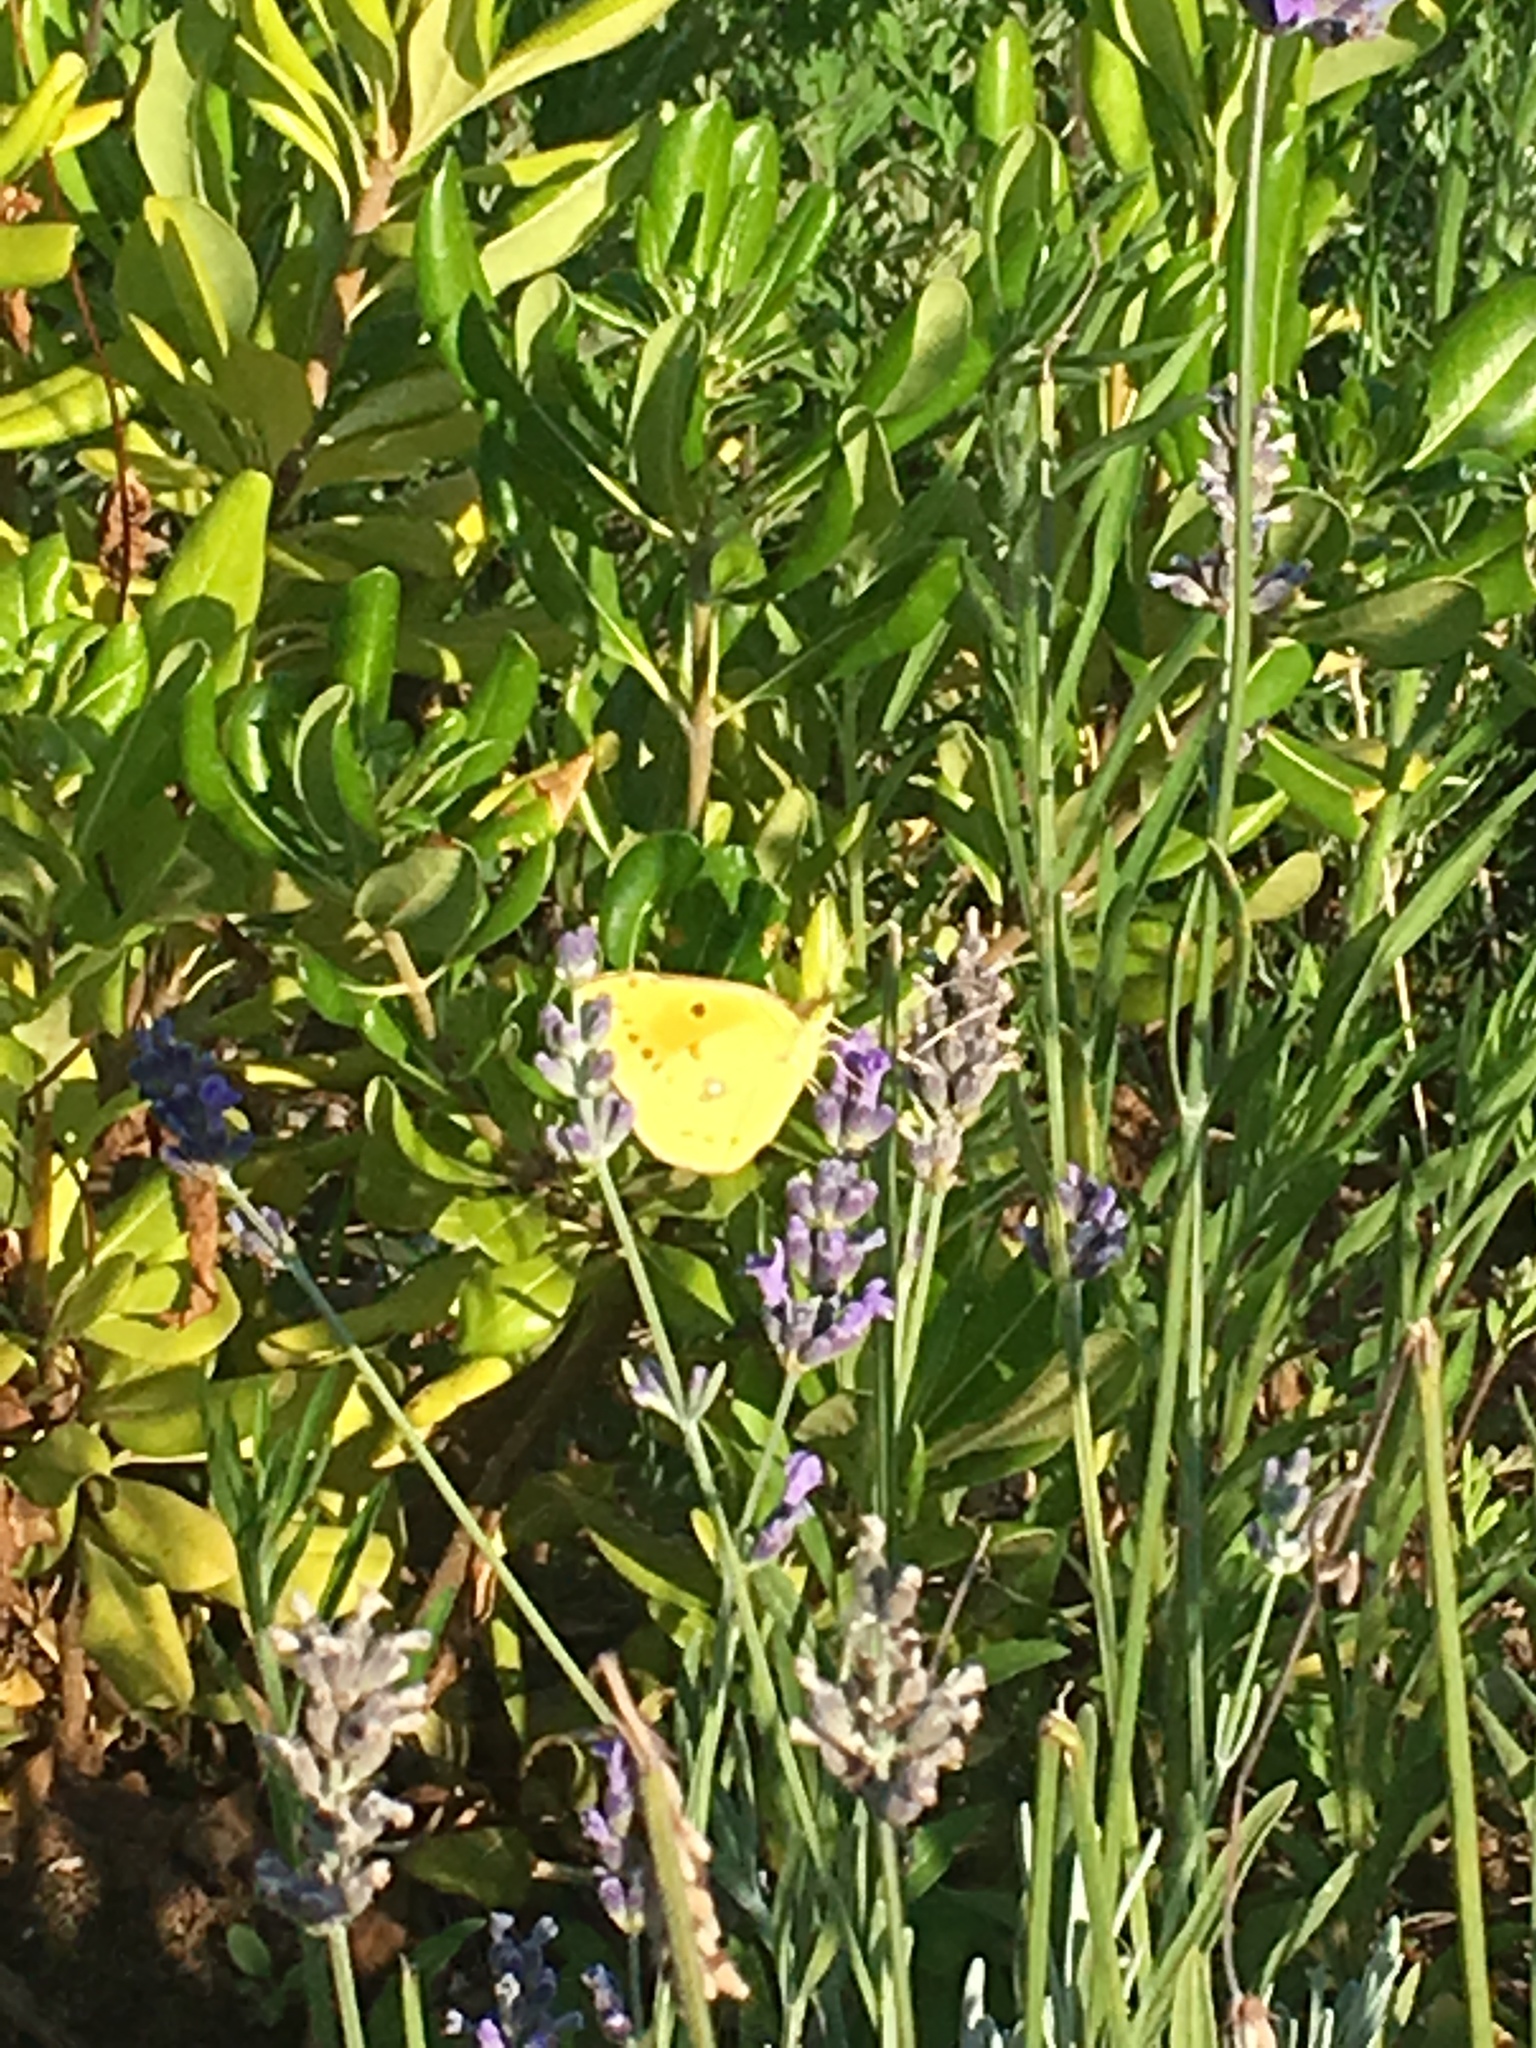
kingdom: Animalia
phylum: Arthropoda
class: Insecta
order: Lepidoptera
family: Pieridae
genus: Colias
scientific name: Colias croceus
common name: Clouded yellow
